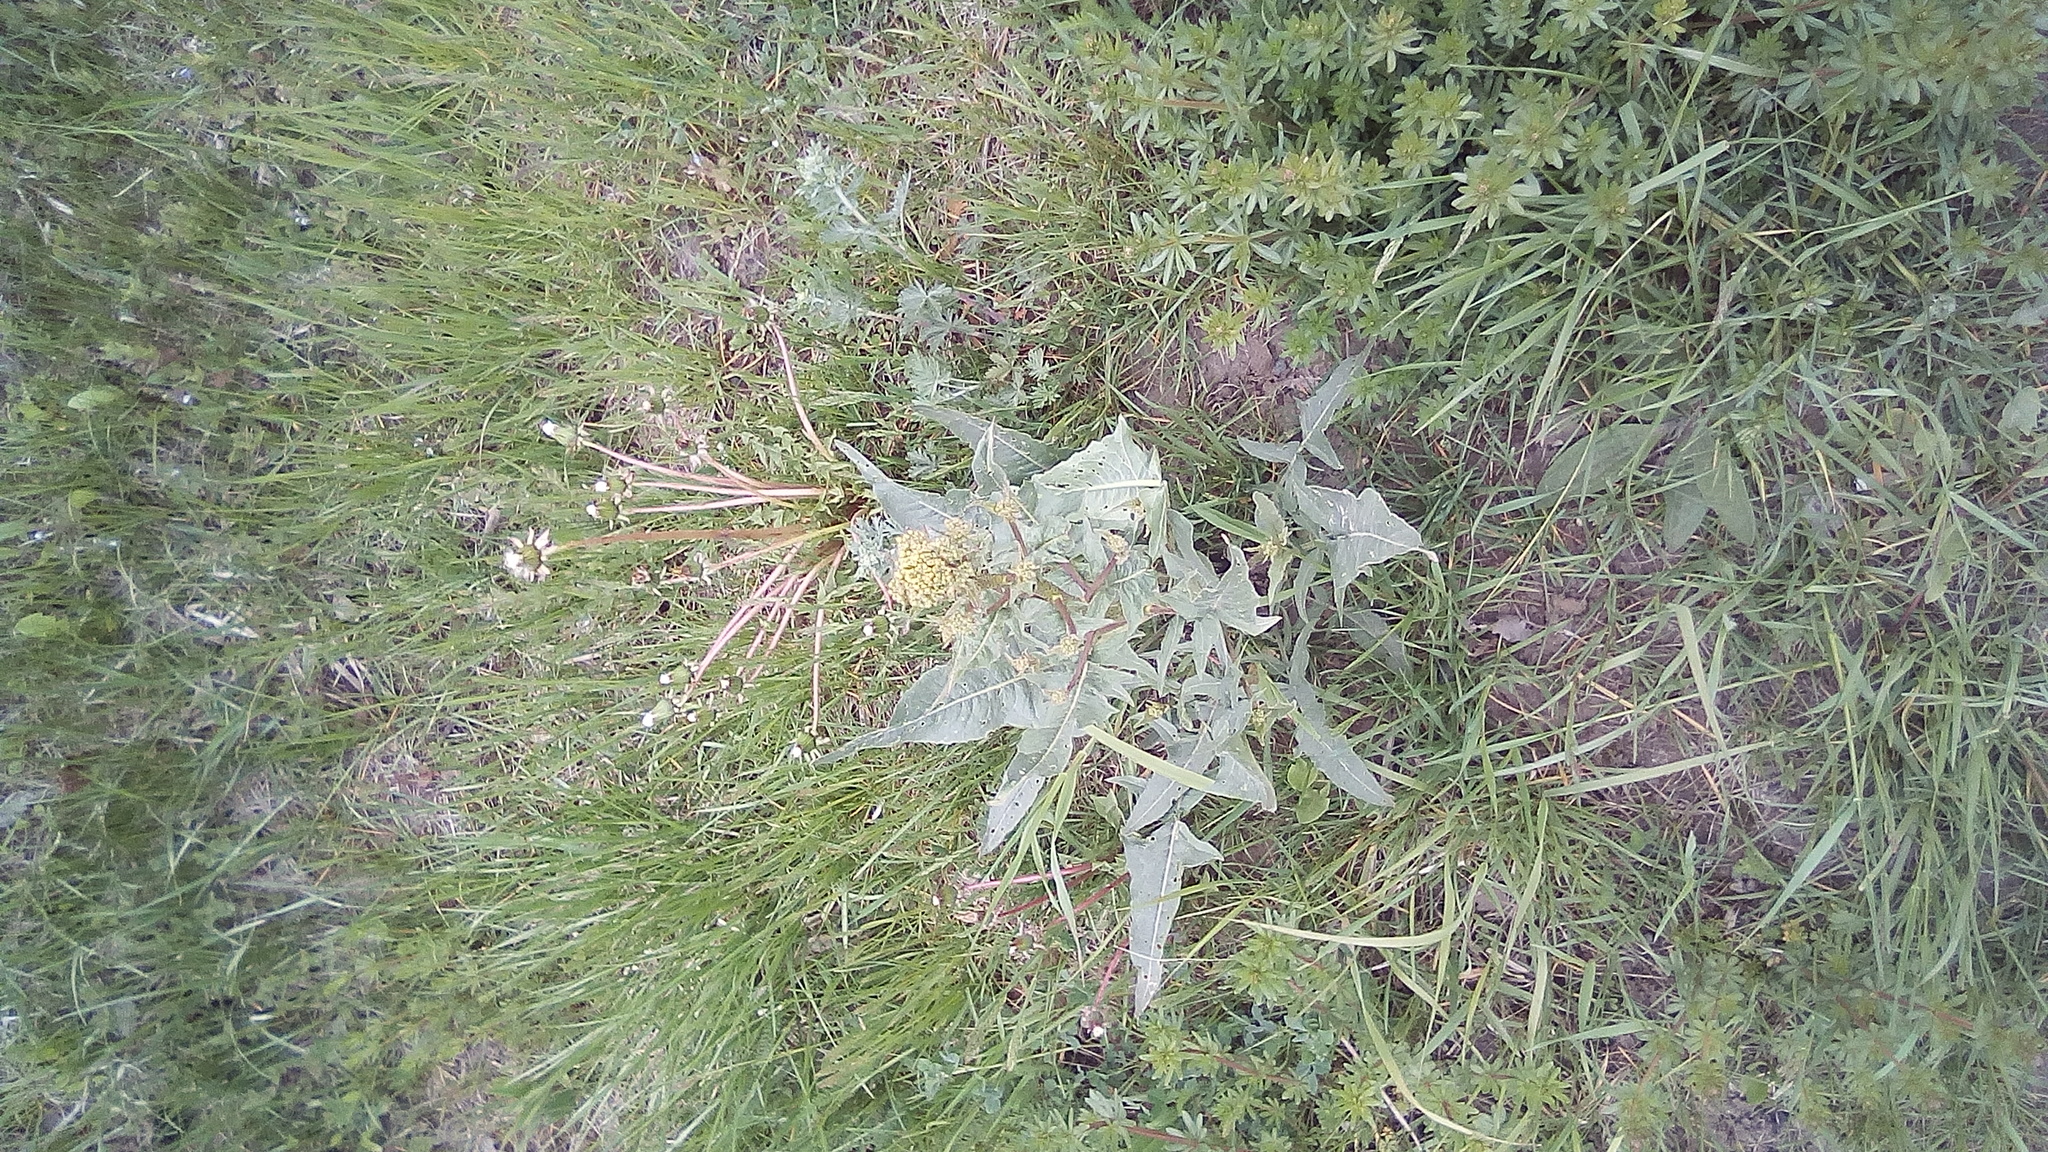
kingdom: Plantae
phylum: Tracheophyta
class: Magnoliopsida
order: Brassicales
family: Brassicaceae
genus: Bunias
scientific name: Bunias orientalis
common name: Warty-cabbage
